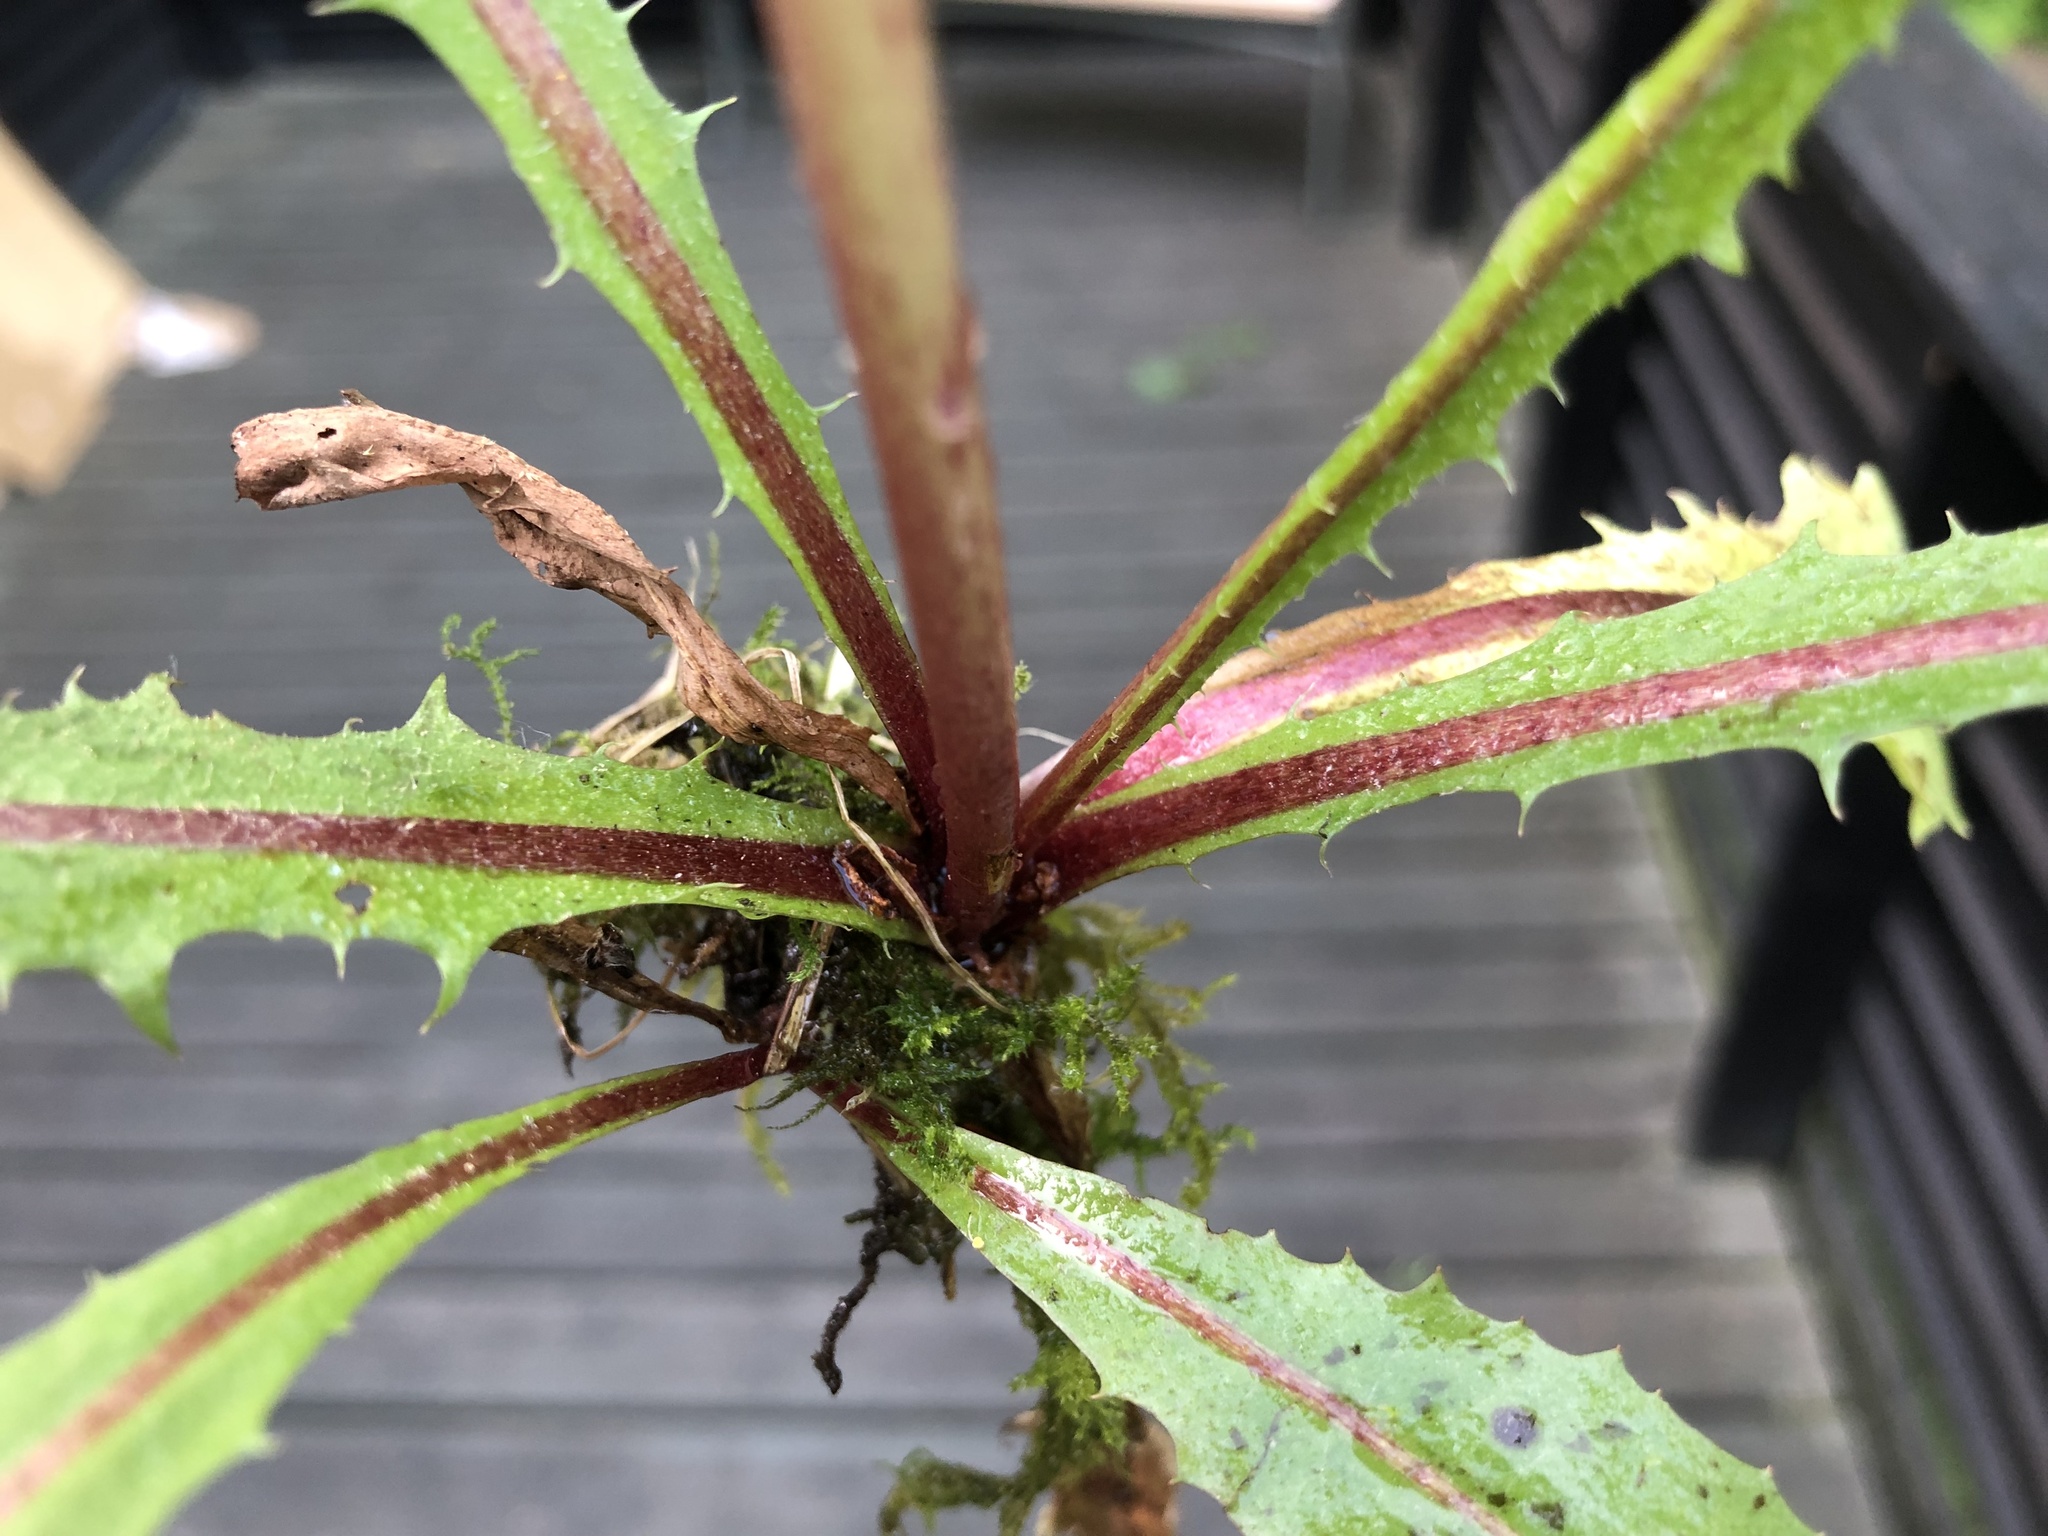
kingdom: Plantae
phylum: Tracheophyta
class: Magnoliopsida
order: Asterales
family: Asteraceae
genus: Taraxacum
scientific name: Taraxacum euryphyllum
